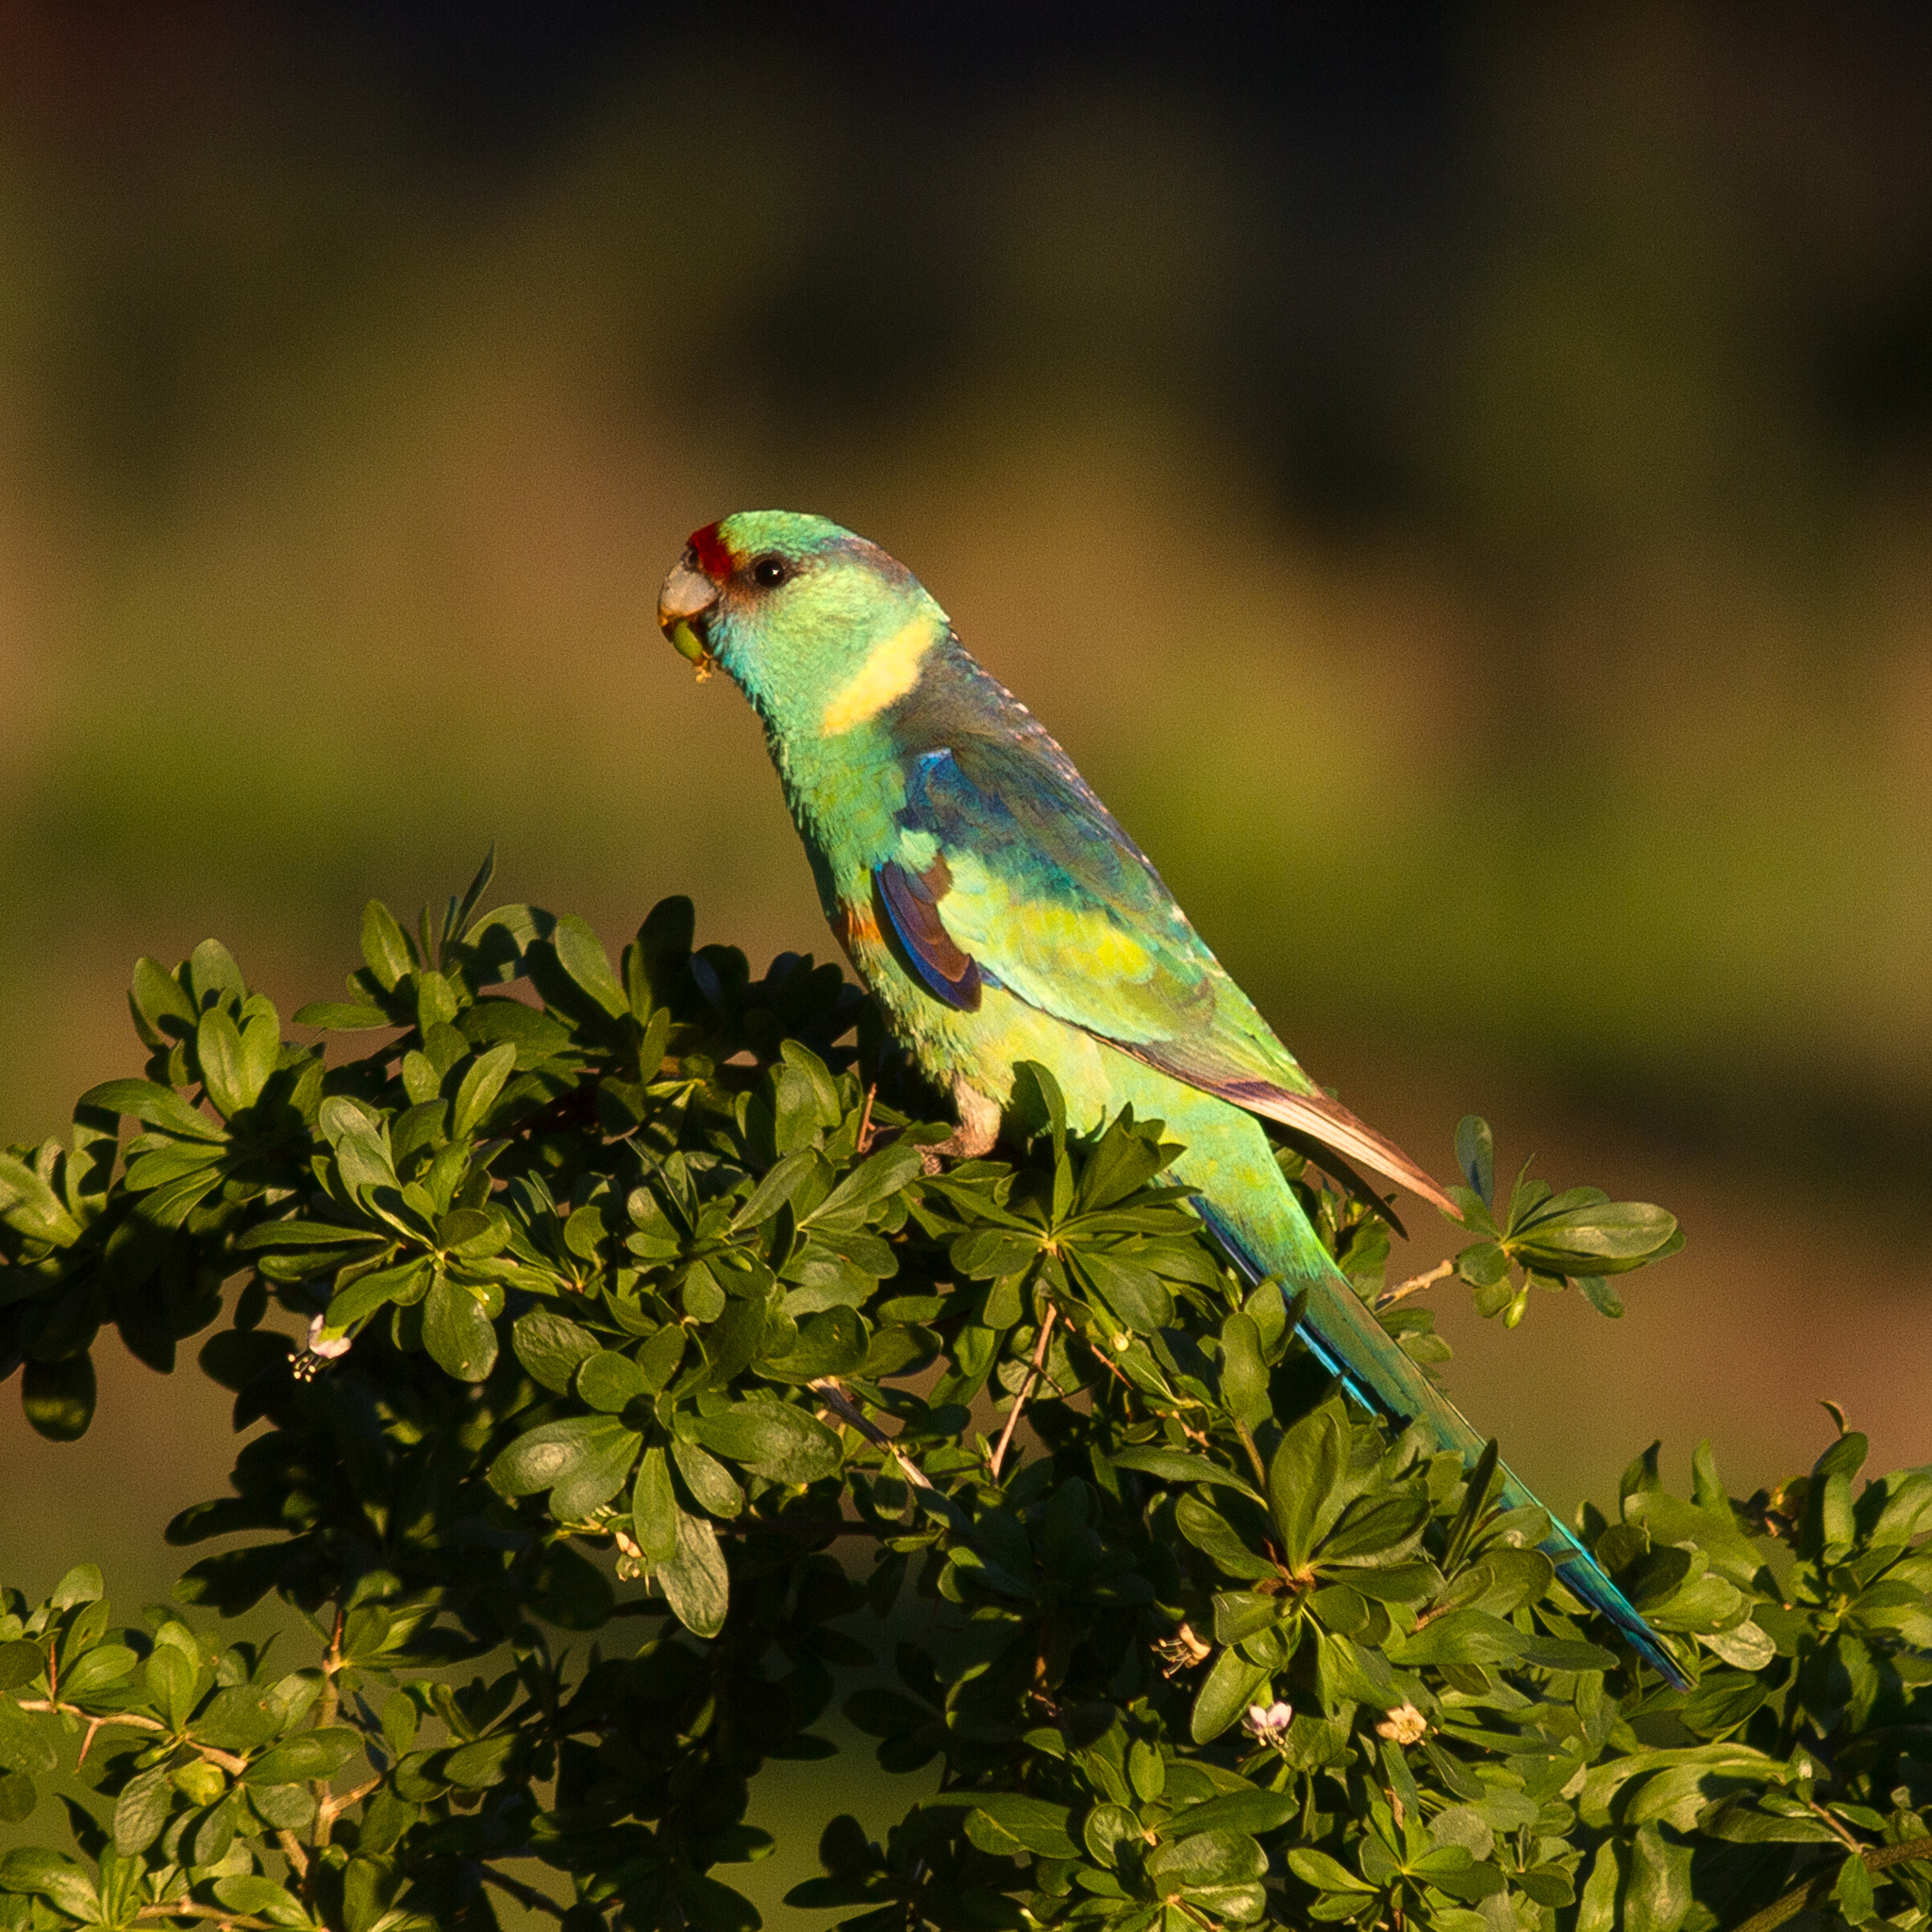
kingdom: Animalia
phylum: Chordata
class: Aves
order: Psittaciformes
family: Psittacidae
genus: Barnardius
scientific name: Barnardius zonarius
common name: Australian ringneck
